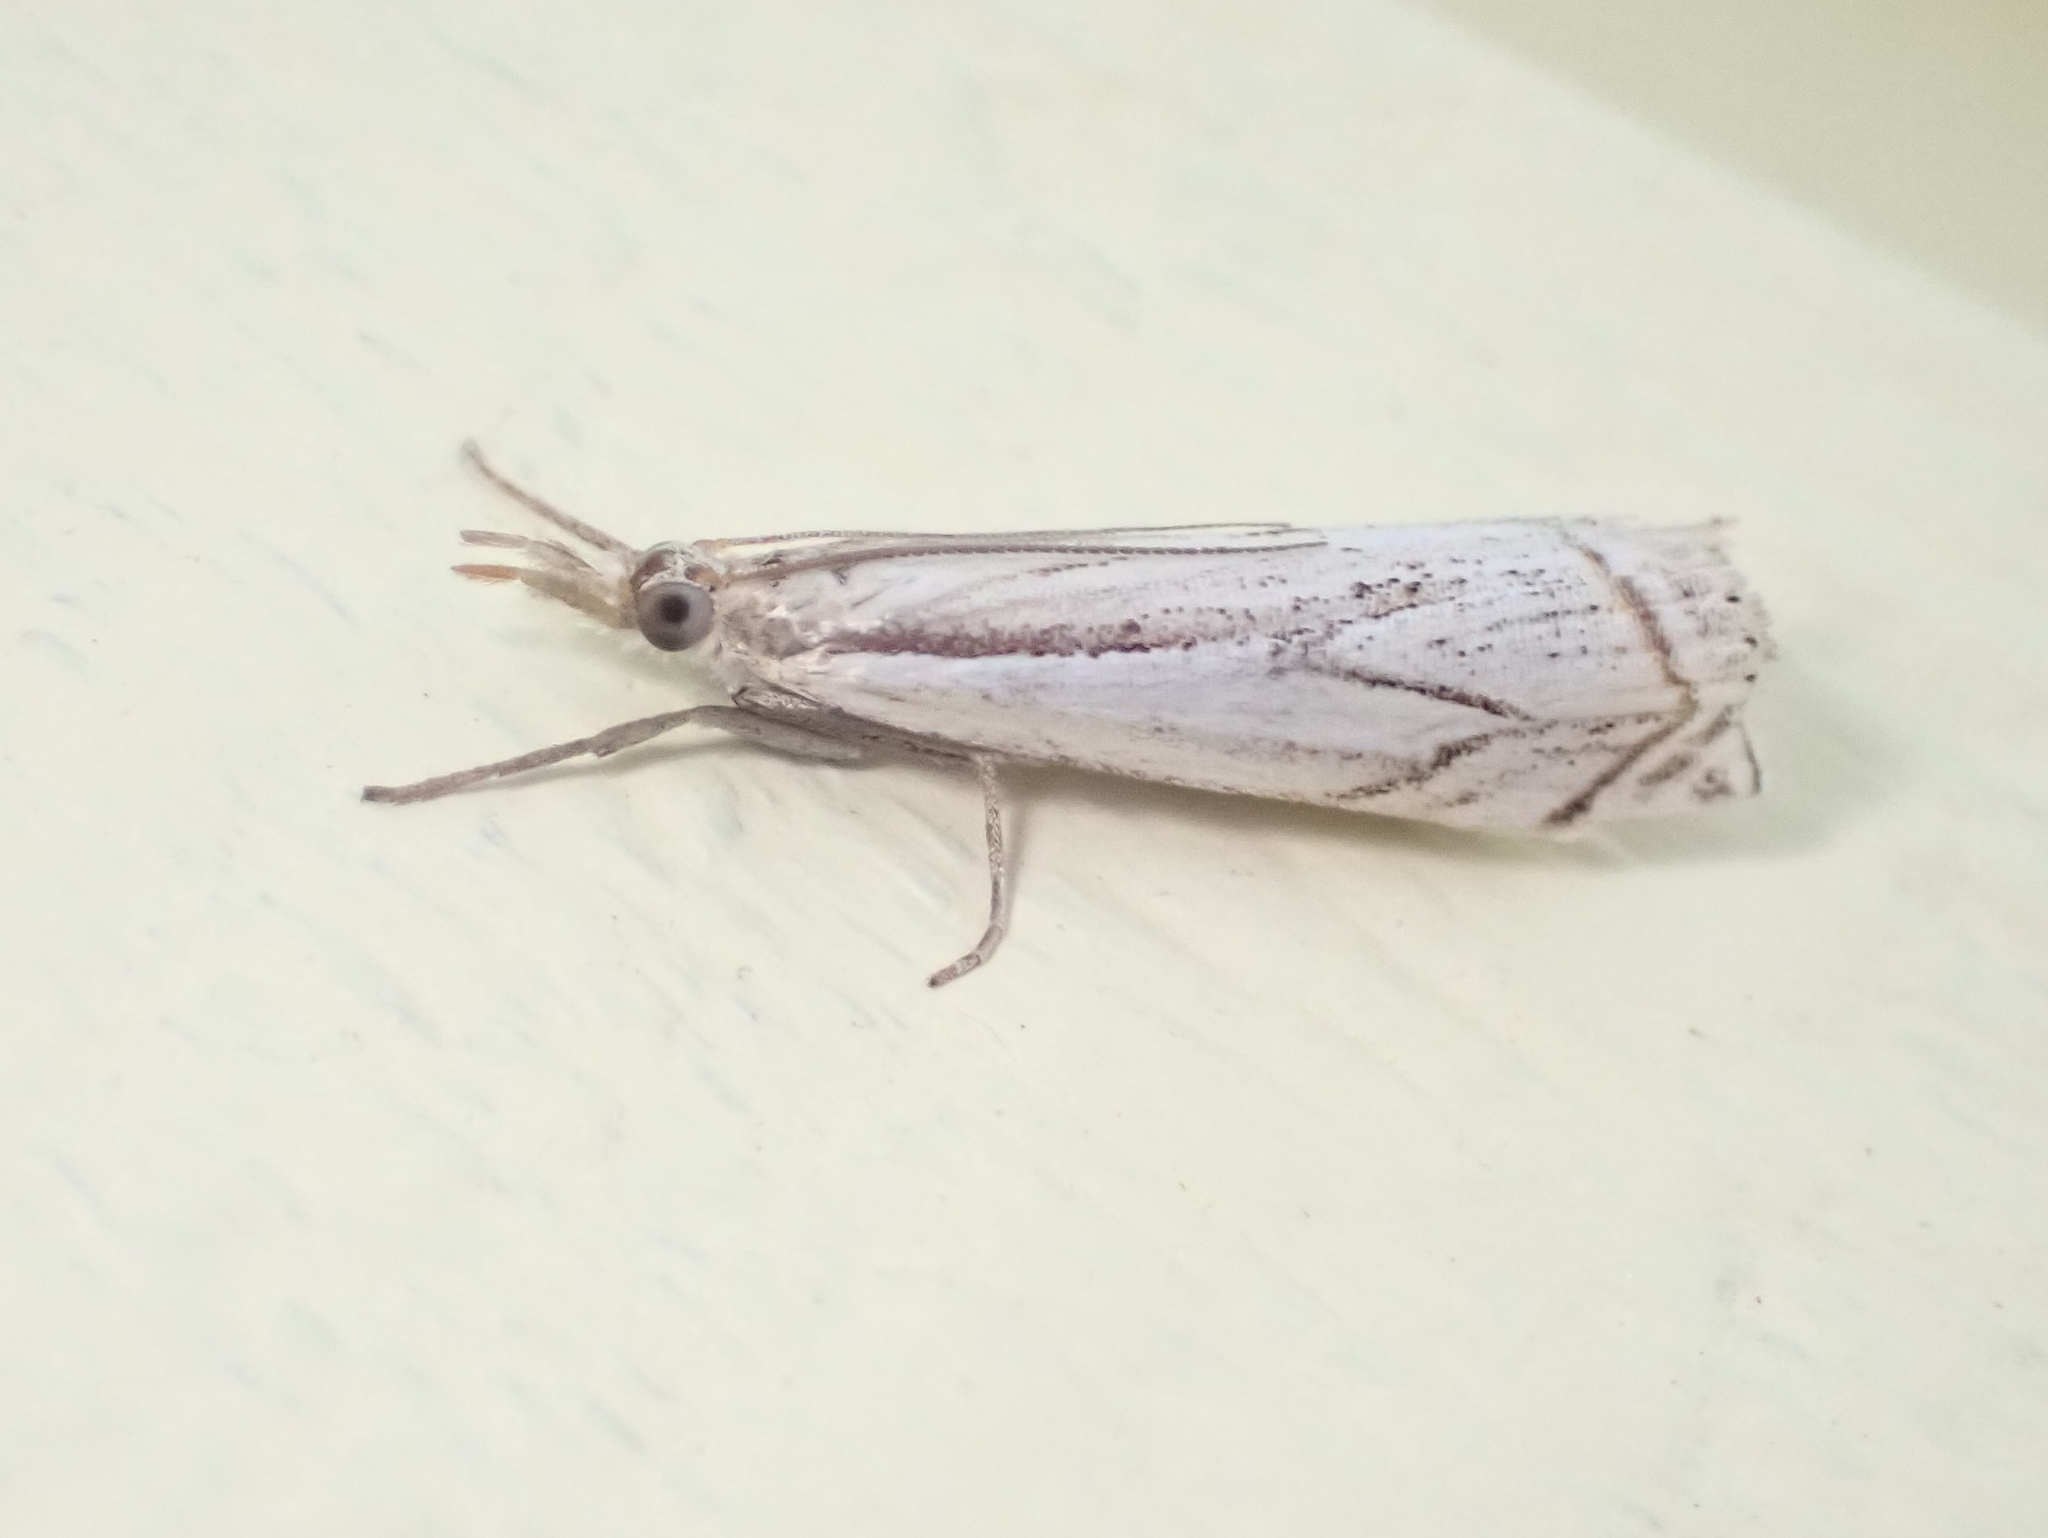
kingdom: Animalia
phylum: Arthropoda
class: Insecta
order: Lepidoptera
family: Crambidae
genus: Crambus
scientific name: Crambus albellus
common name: Small white grass-veneer
